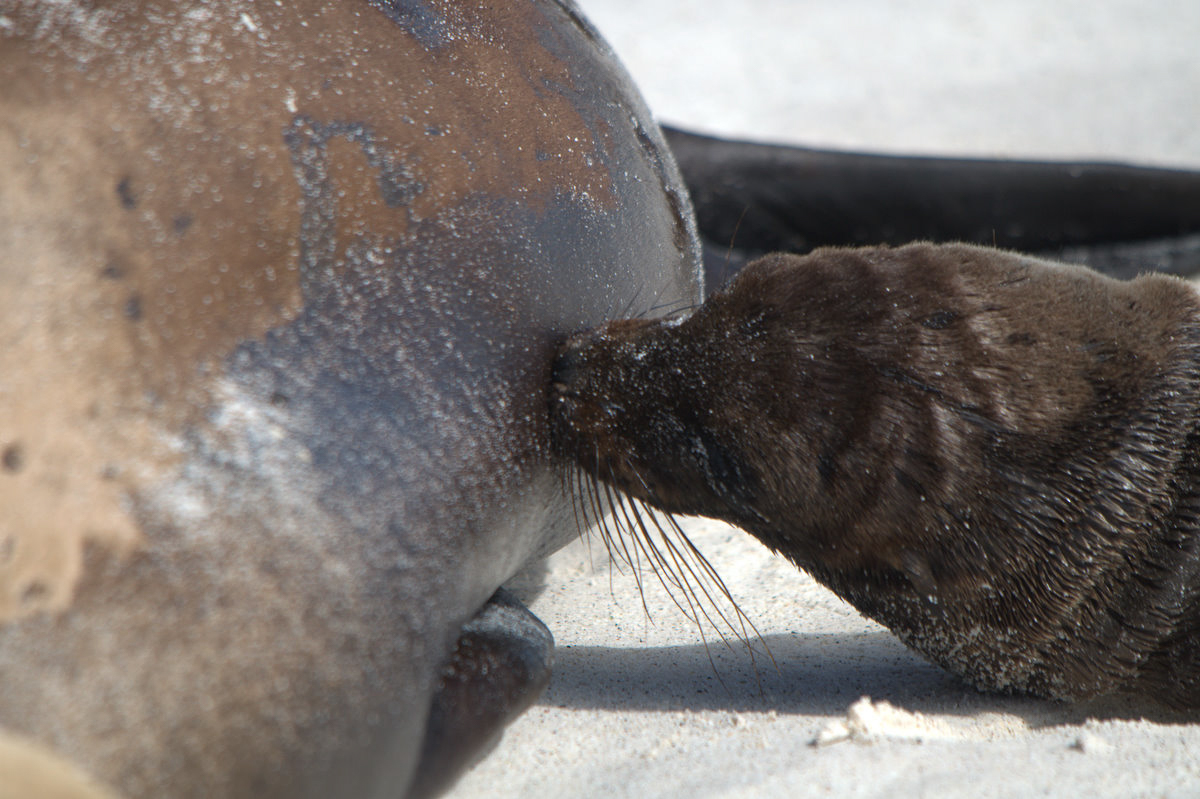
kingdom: Animalia
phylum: Chordata
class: Mammalia
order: Carnivora
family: Otariidae
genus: Zalophus
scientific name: Zalophus wollebaeki
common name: Galapagos sea lion
